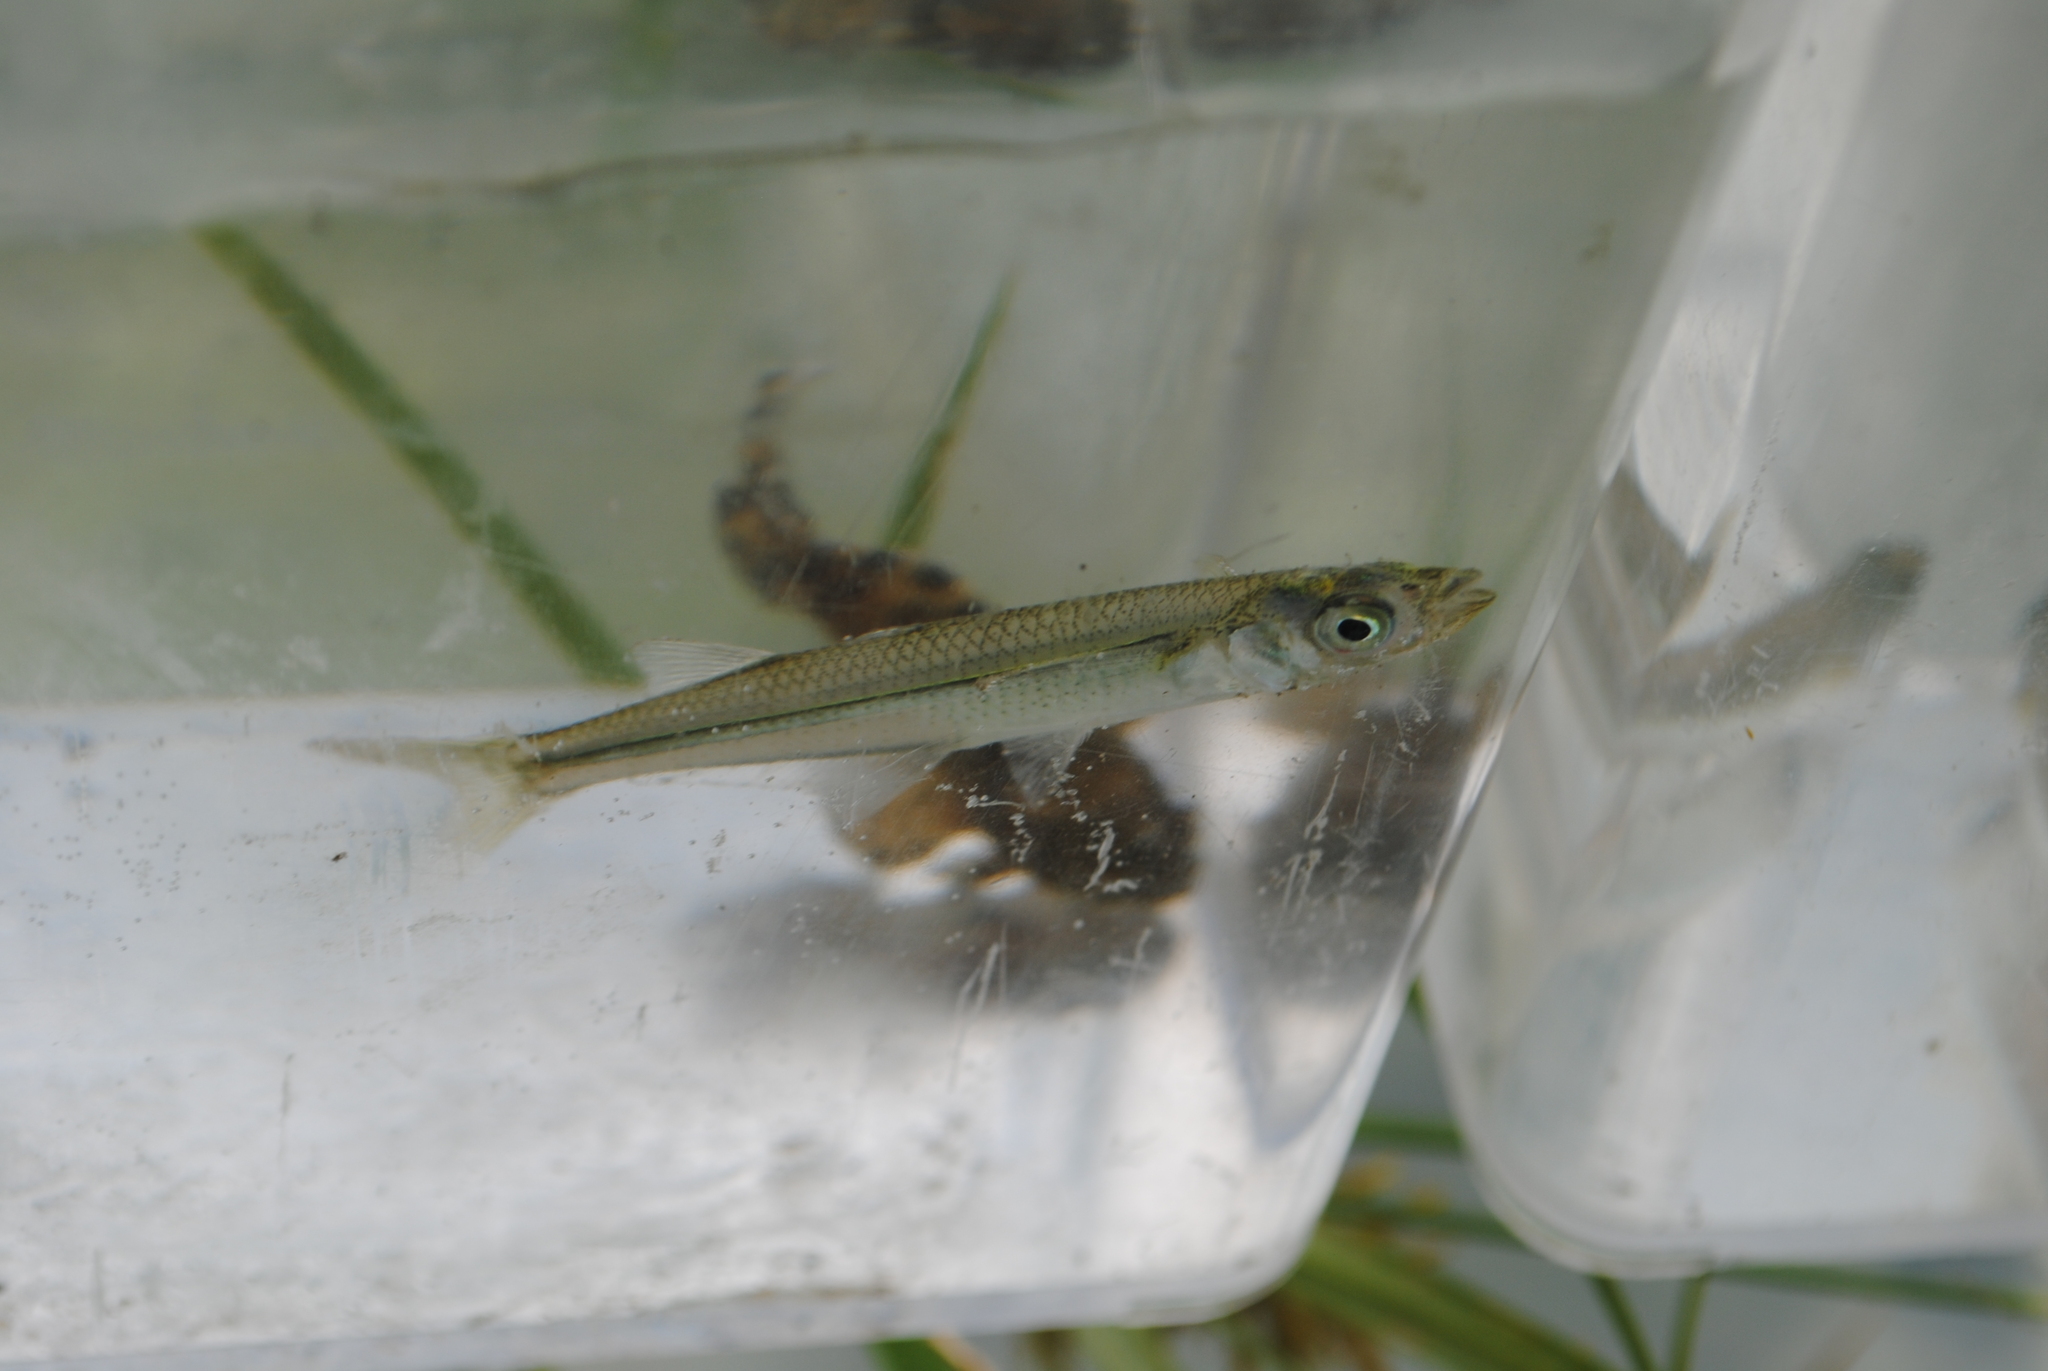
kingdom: Animalia
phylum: Chordata
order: Atheriniformes
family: Atherinopsidae
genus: Menidia
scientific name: Menidia beryllina
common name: Inland silverside
